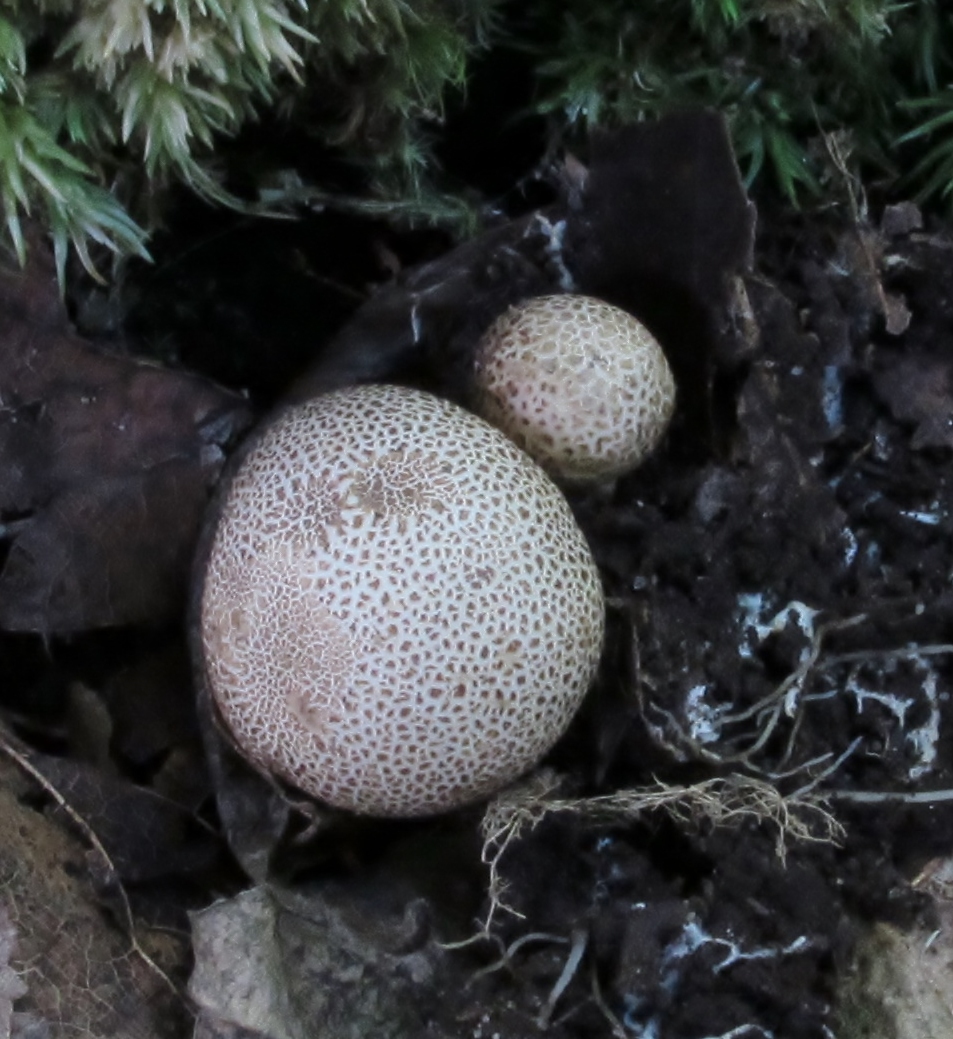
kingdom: Fungi
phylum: Basidiomycota
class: Agaricomycetes
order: Boletales
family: Sclerodermataceae
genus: Scleroderma
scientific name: Scleroderma areolatum
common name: Leopard earthball
